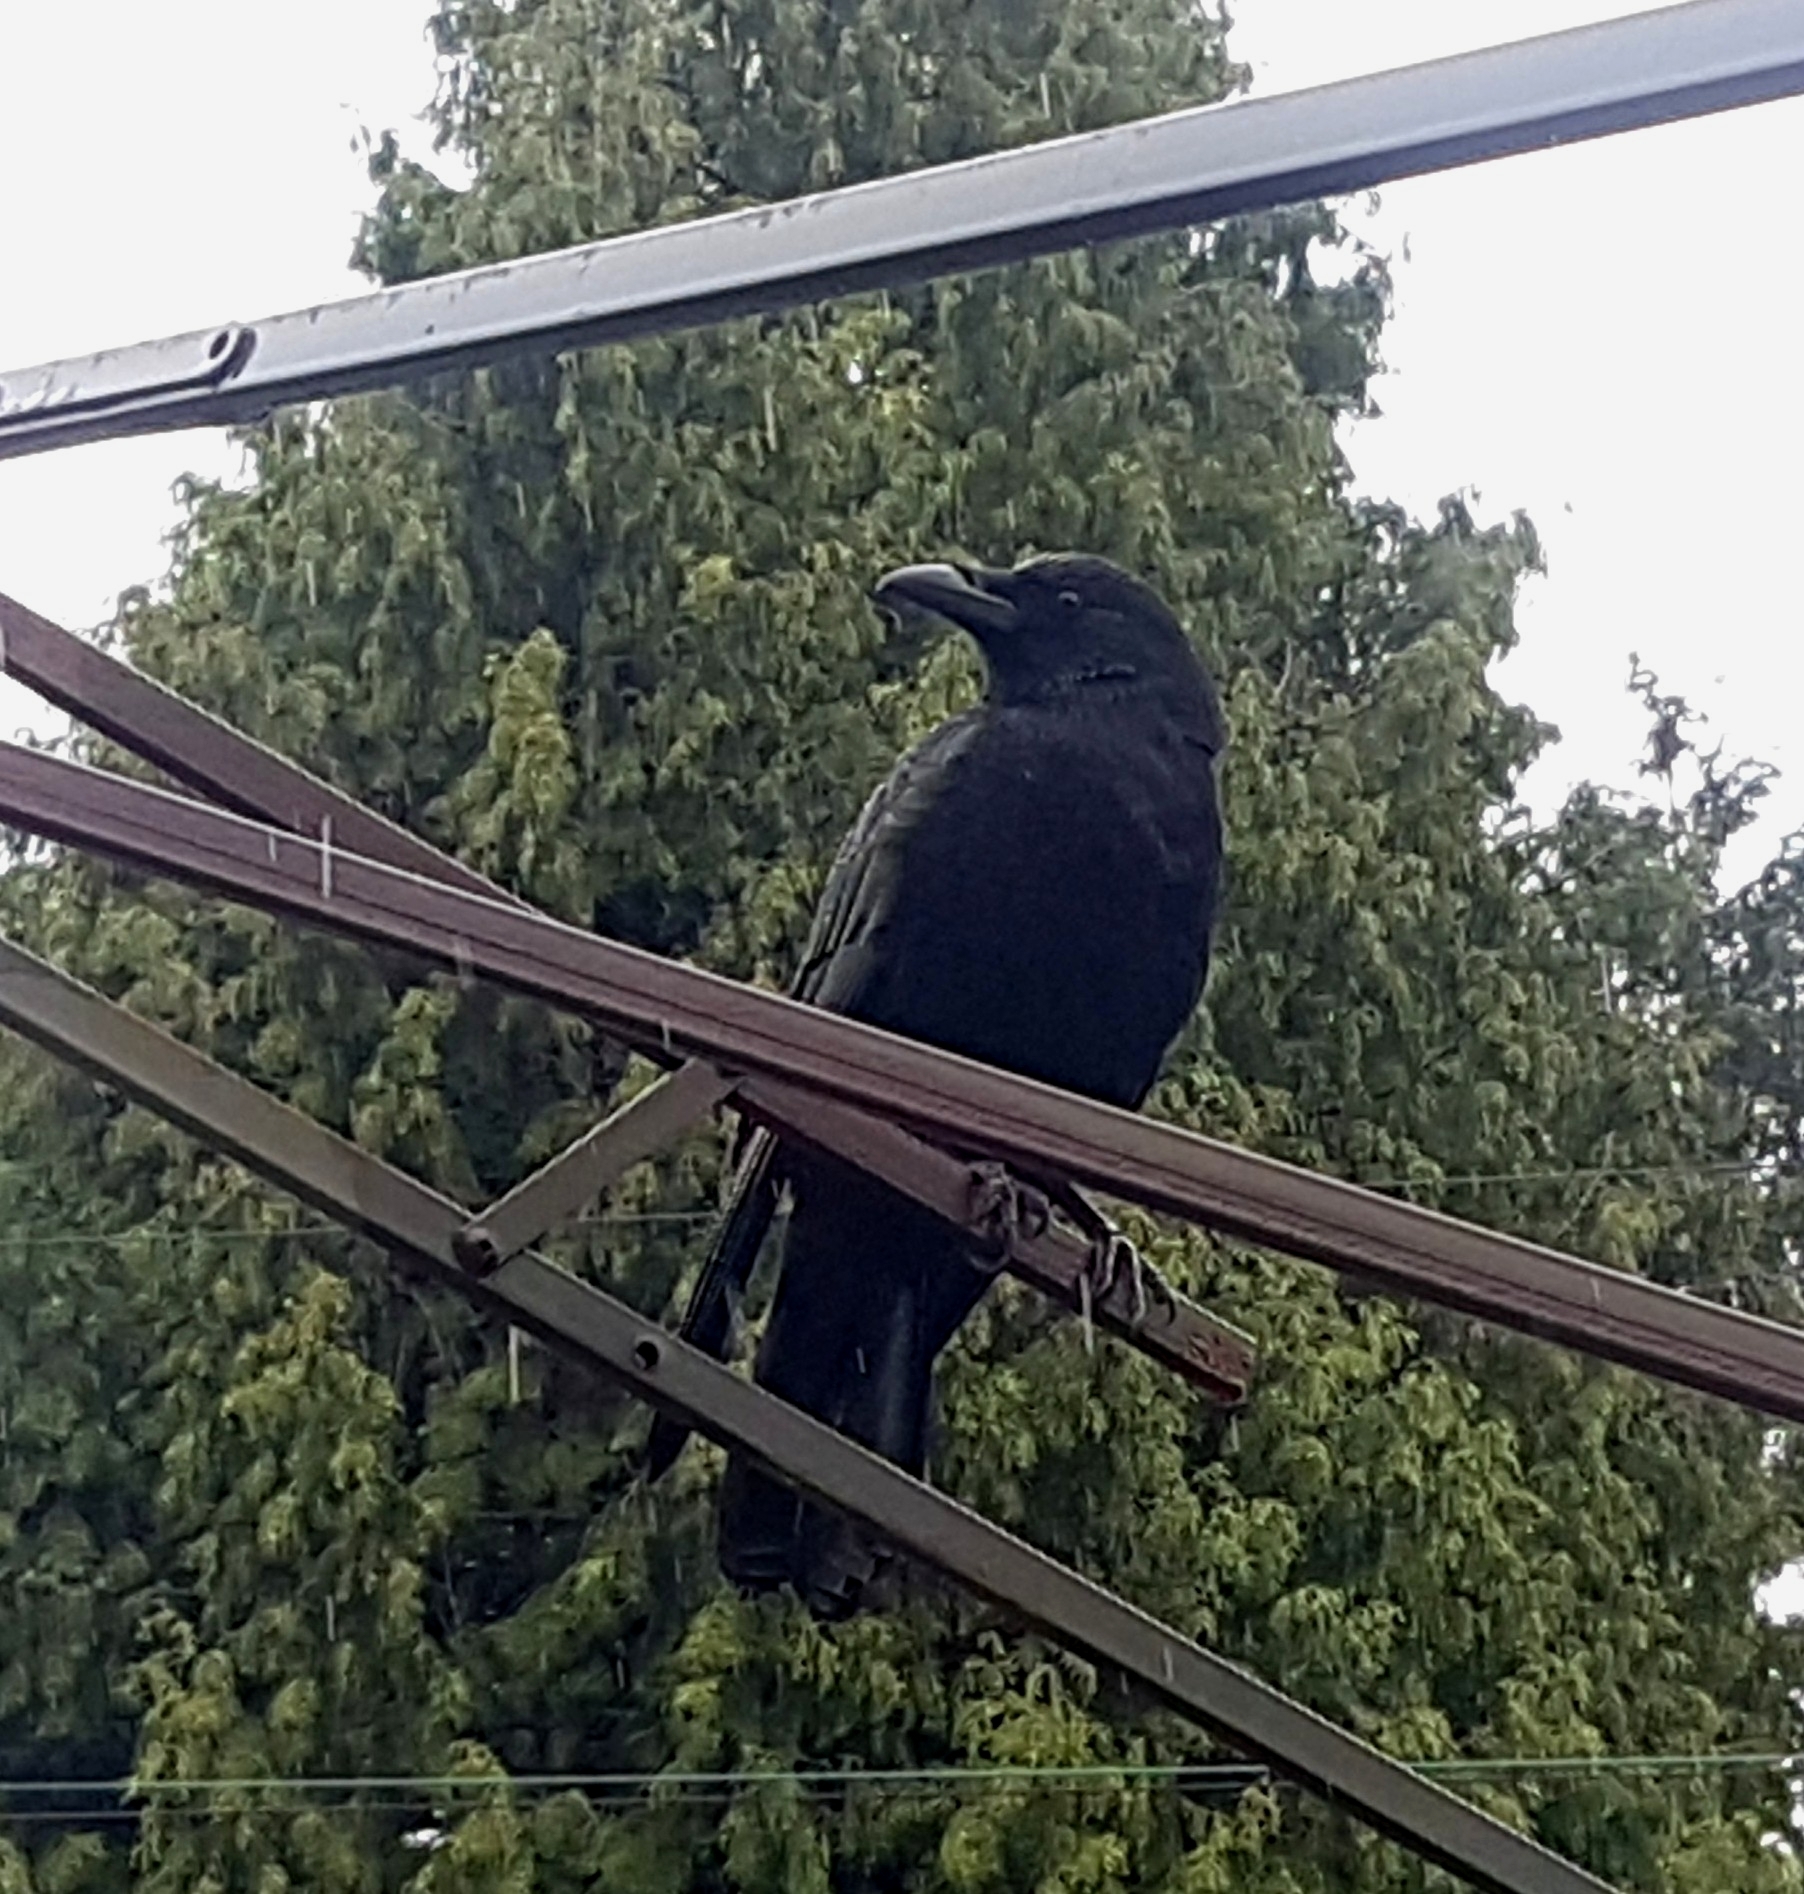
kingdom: Animalia
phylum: Chordata
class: Aves
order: Passeriformes
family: Corvidae
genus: Corvus
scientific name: Corvus brachyrhynchos
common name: American crow
